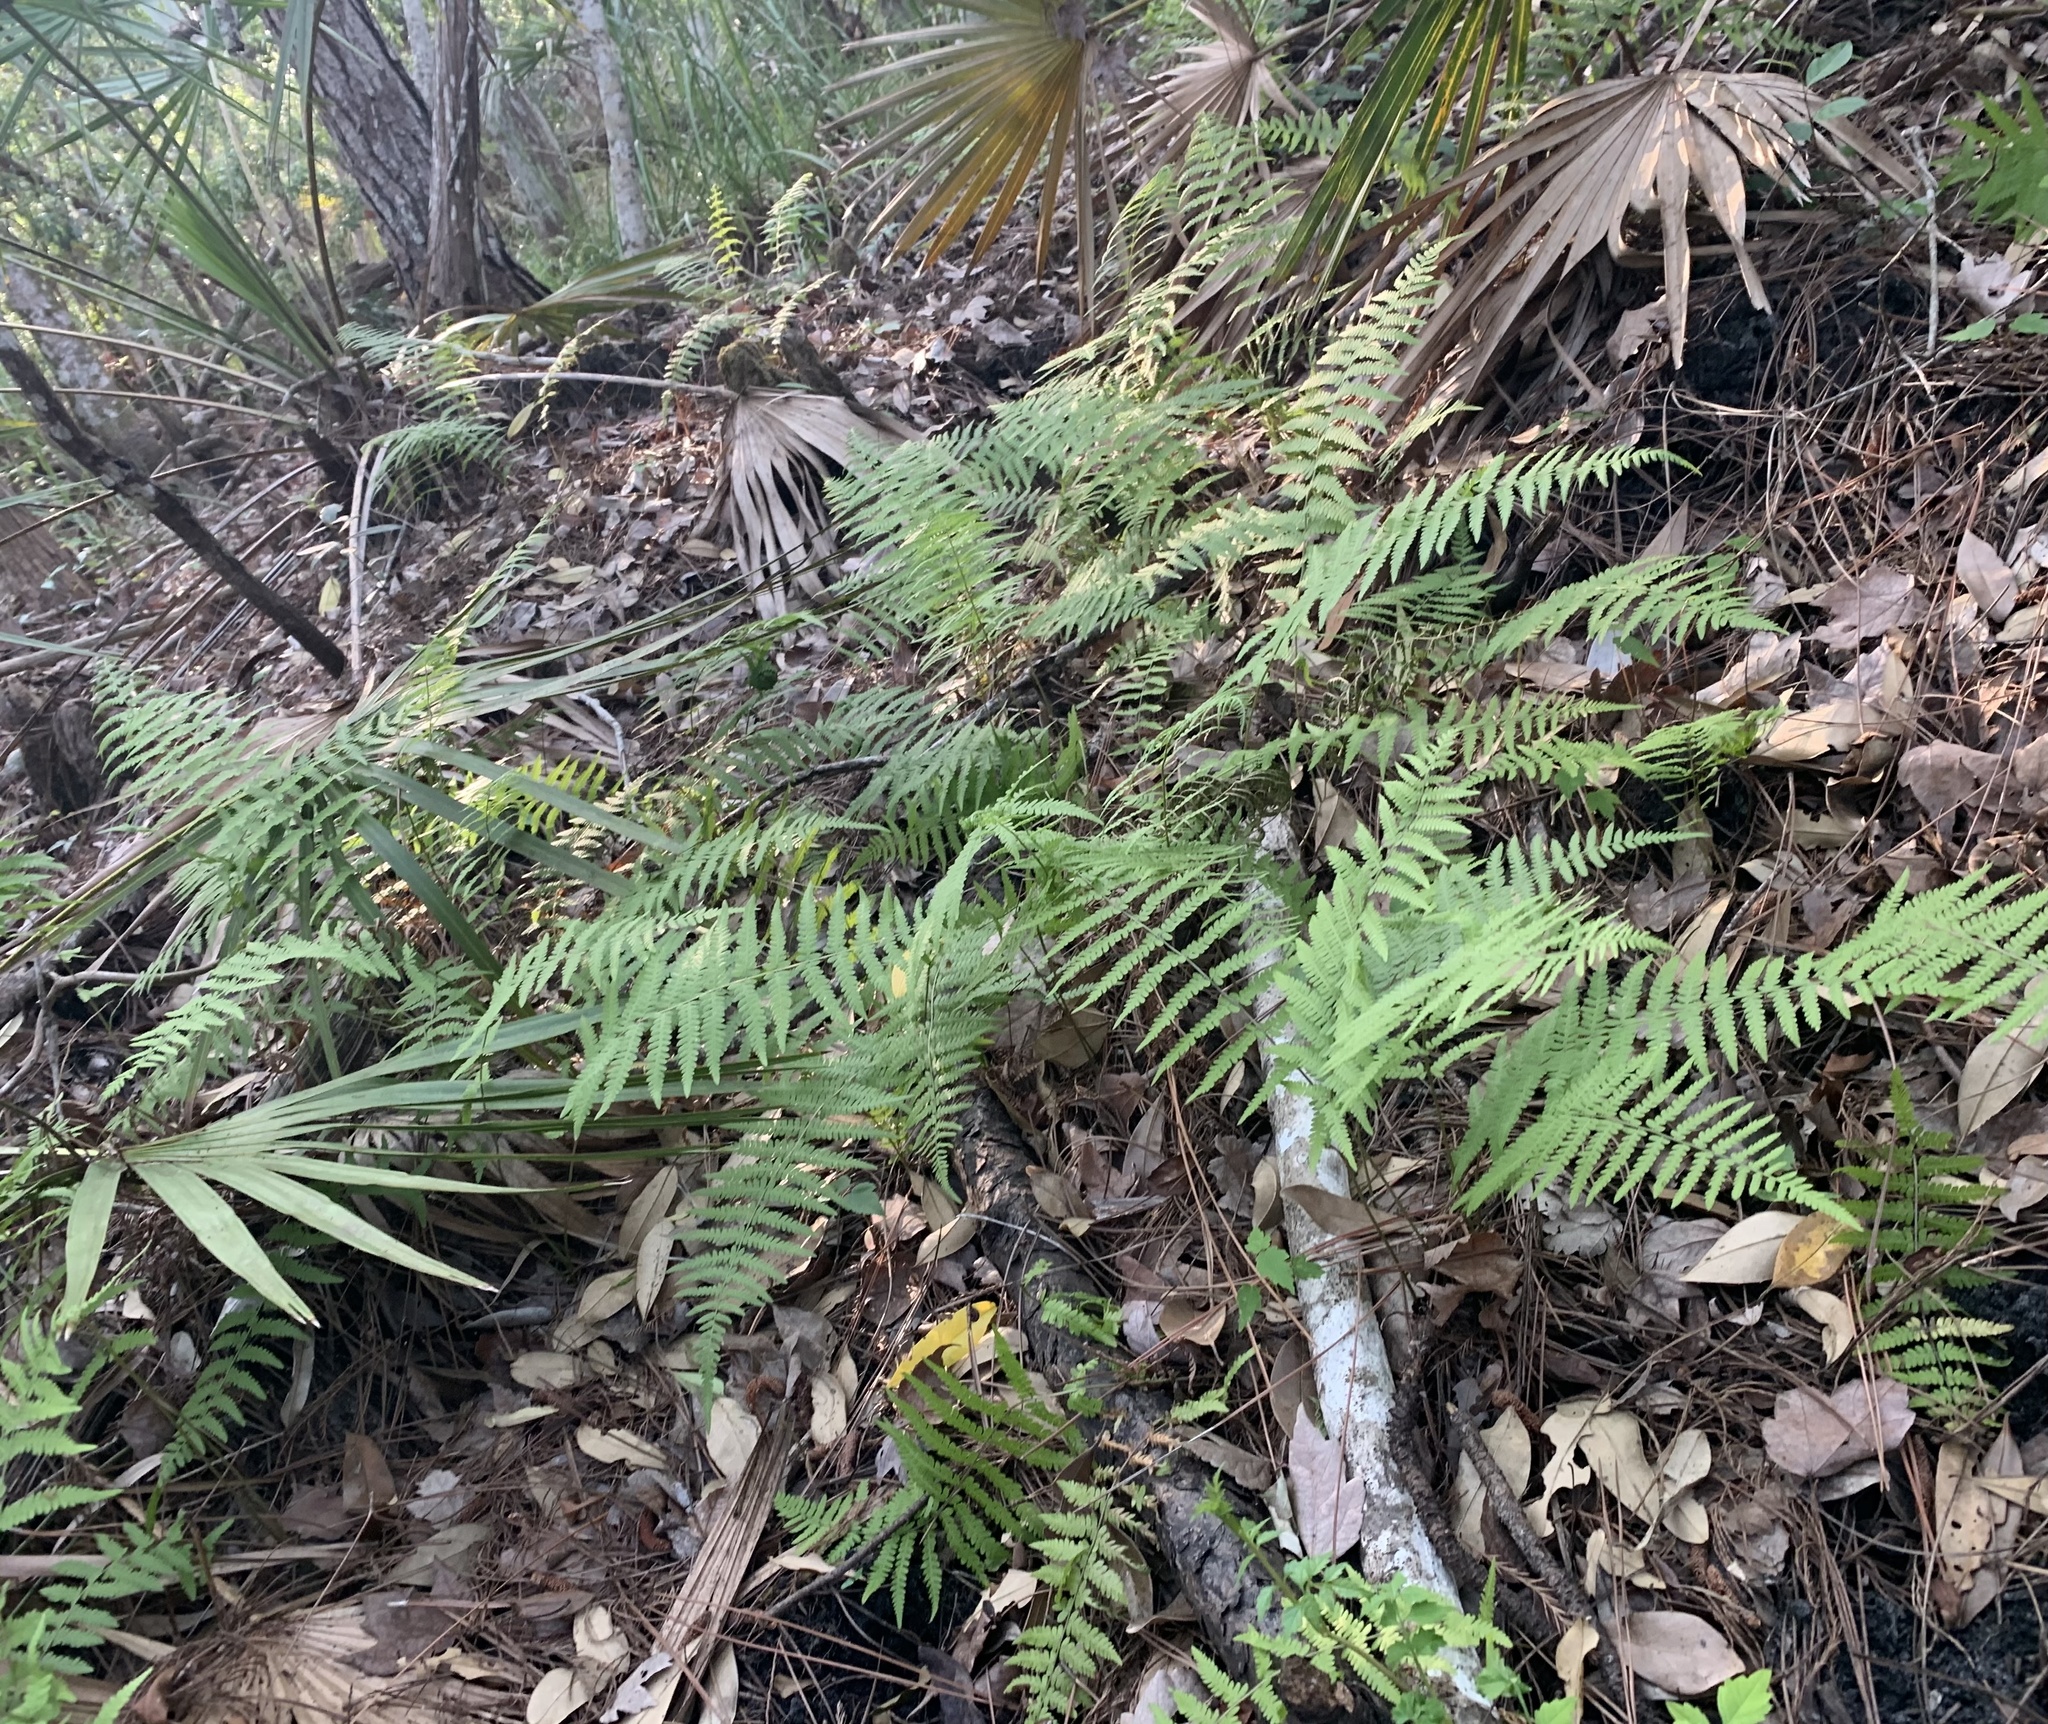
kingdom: Plantae
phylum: Tracheophyta
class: Polypodiopsida
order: Polypodiales
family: Thelypteridaceae
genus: Thelypteris
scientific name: Thelypteris palustris
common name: Marsh fern
